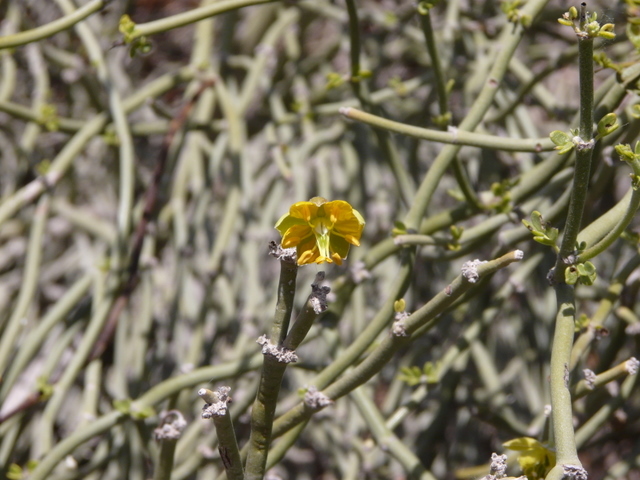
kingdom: Plantae
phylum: Tracheophyta
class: Magnoliopsida
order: Zygophyllales
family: Zygophyllaceae
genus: Bulnesia
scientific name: Bulnesia retama
